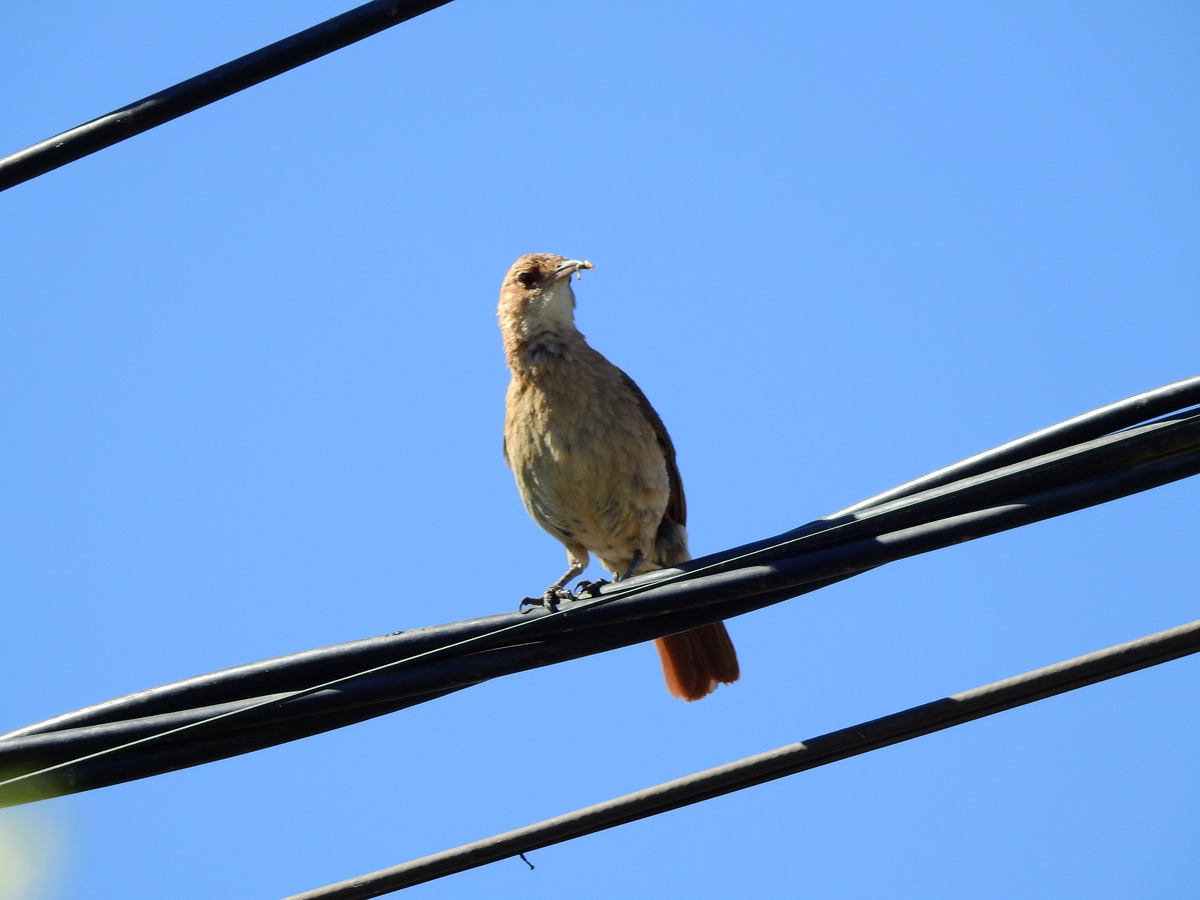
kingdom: Animalia
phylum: Chordata
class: Aves
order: Passeriformes
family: Furnariidae
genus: Furnarius
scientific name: Furnarius rufus
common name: Rufous hornero
